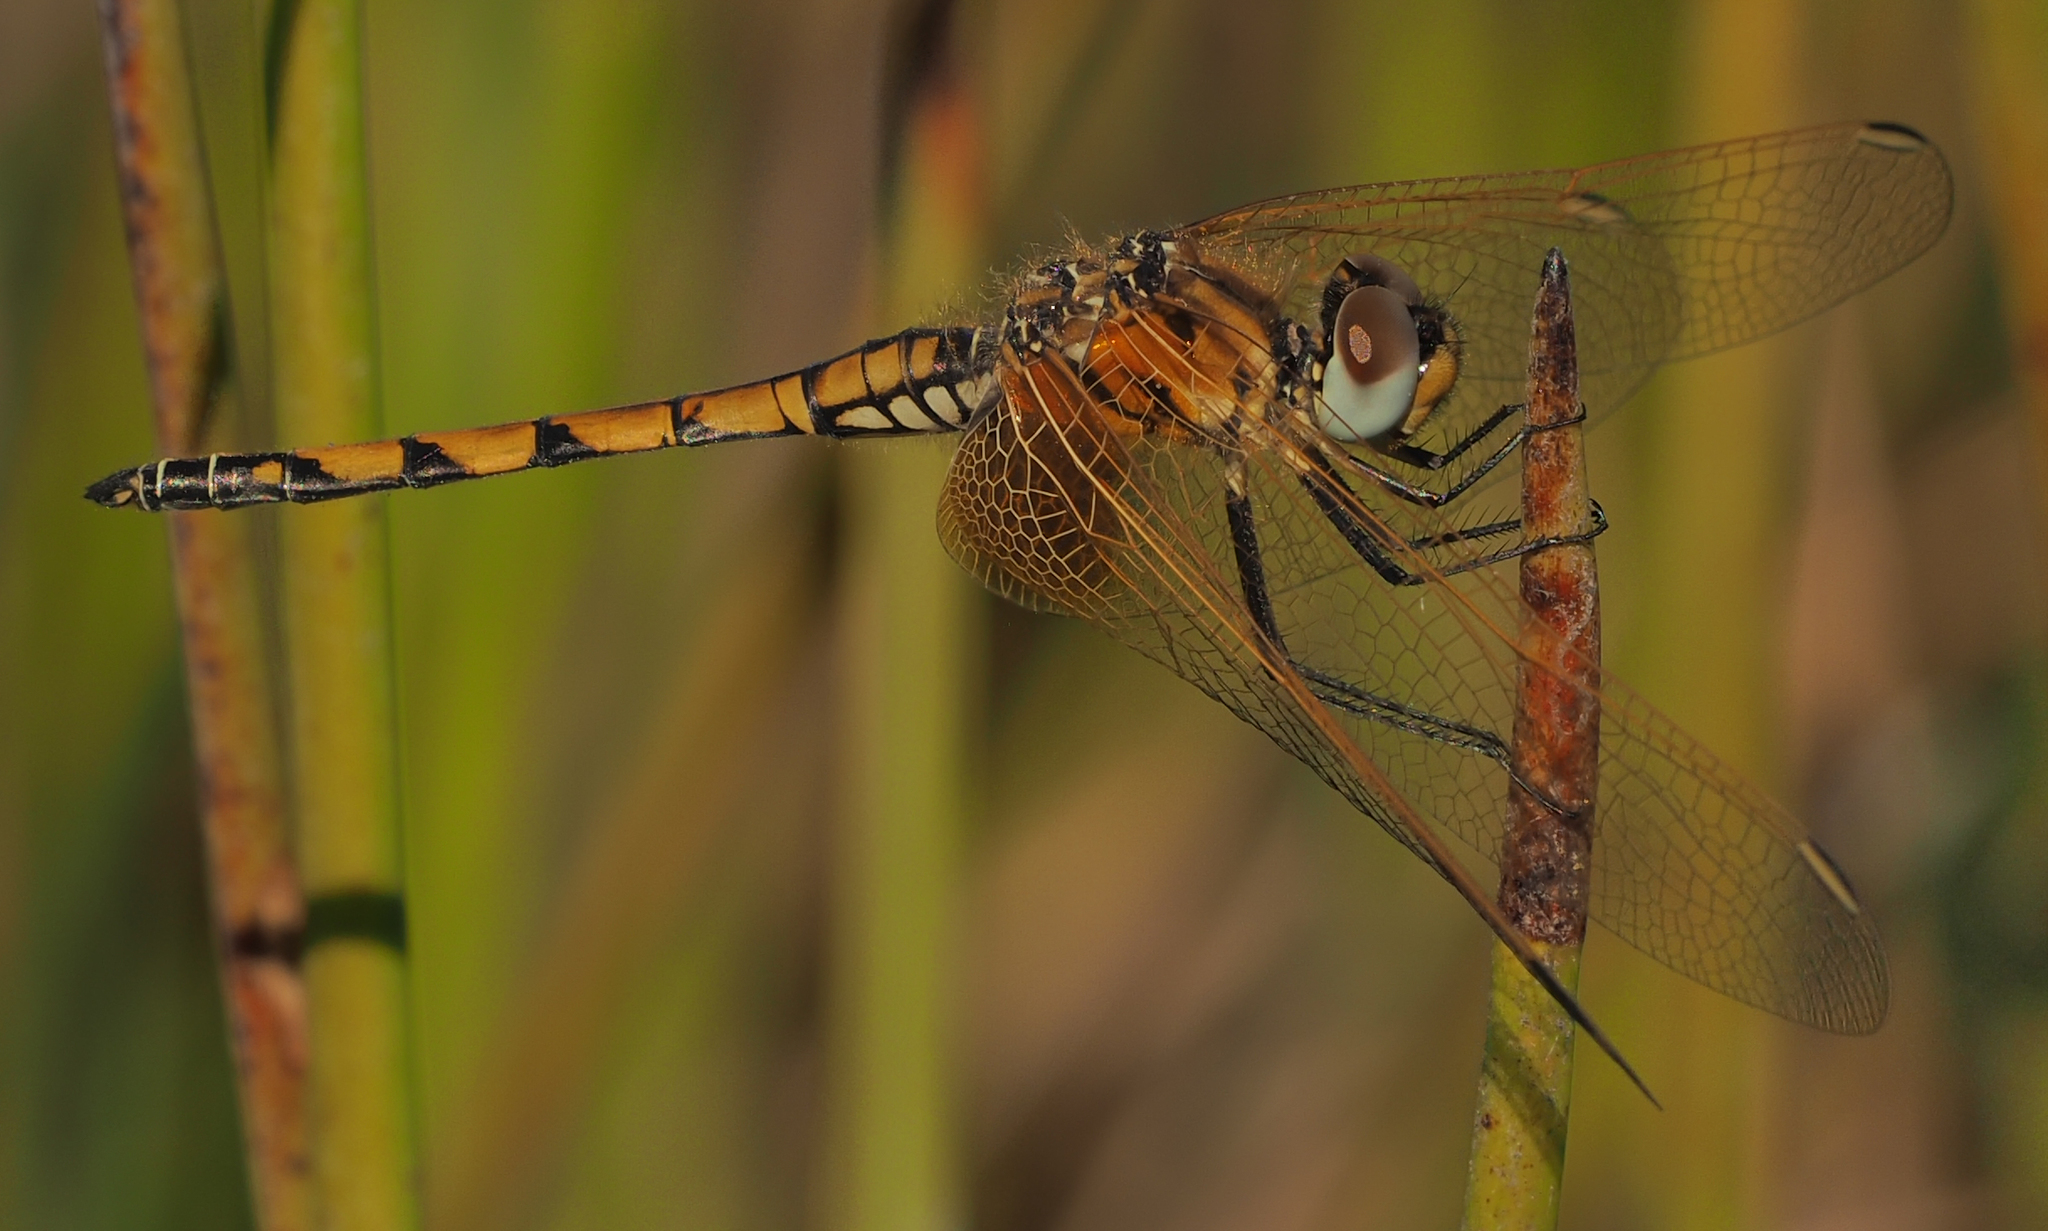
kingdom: Animalia
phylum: Arthropoda
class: Insecta
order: Odonata
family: Libellulidae
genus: Trithemis
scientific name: Trithemis monardi
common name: Monard's dropwing
